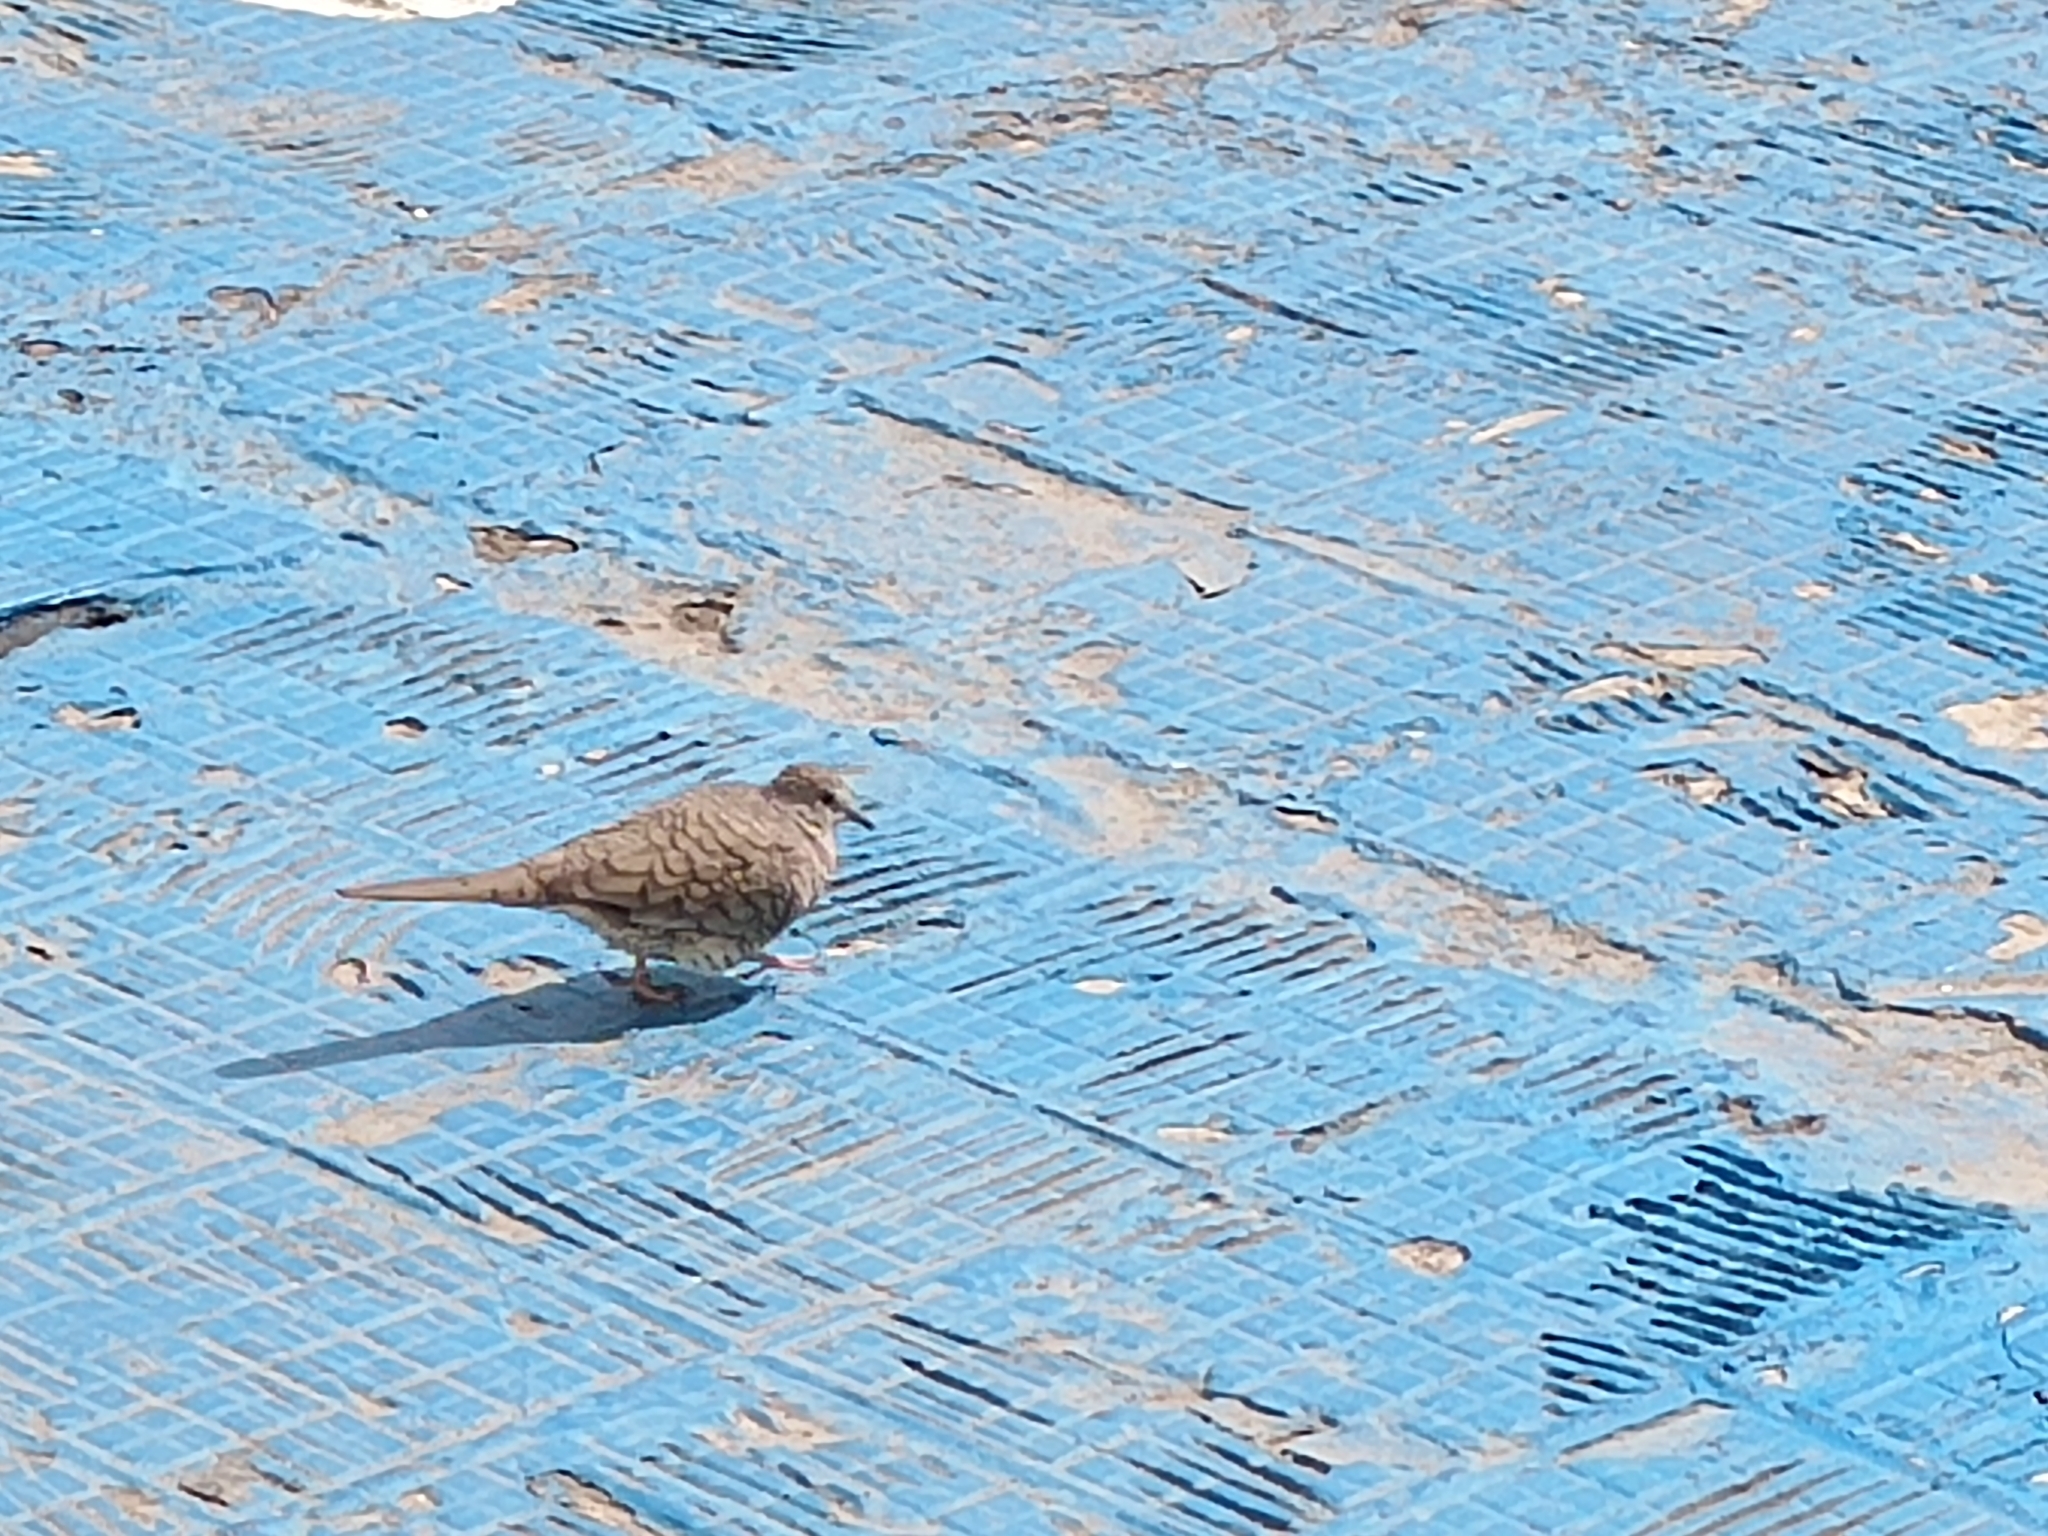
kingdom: Animalia
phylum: Chordata
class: Aves
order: Columbiformes
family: Columbidae
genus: Columbina
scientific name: Columbina inca
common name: Inca dove
